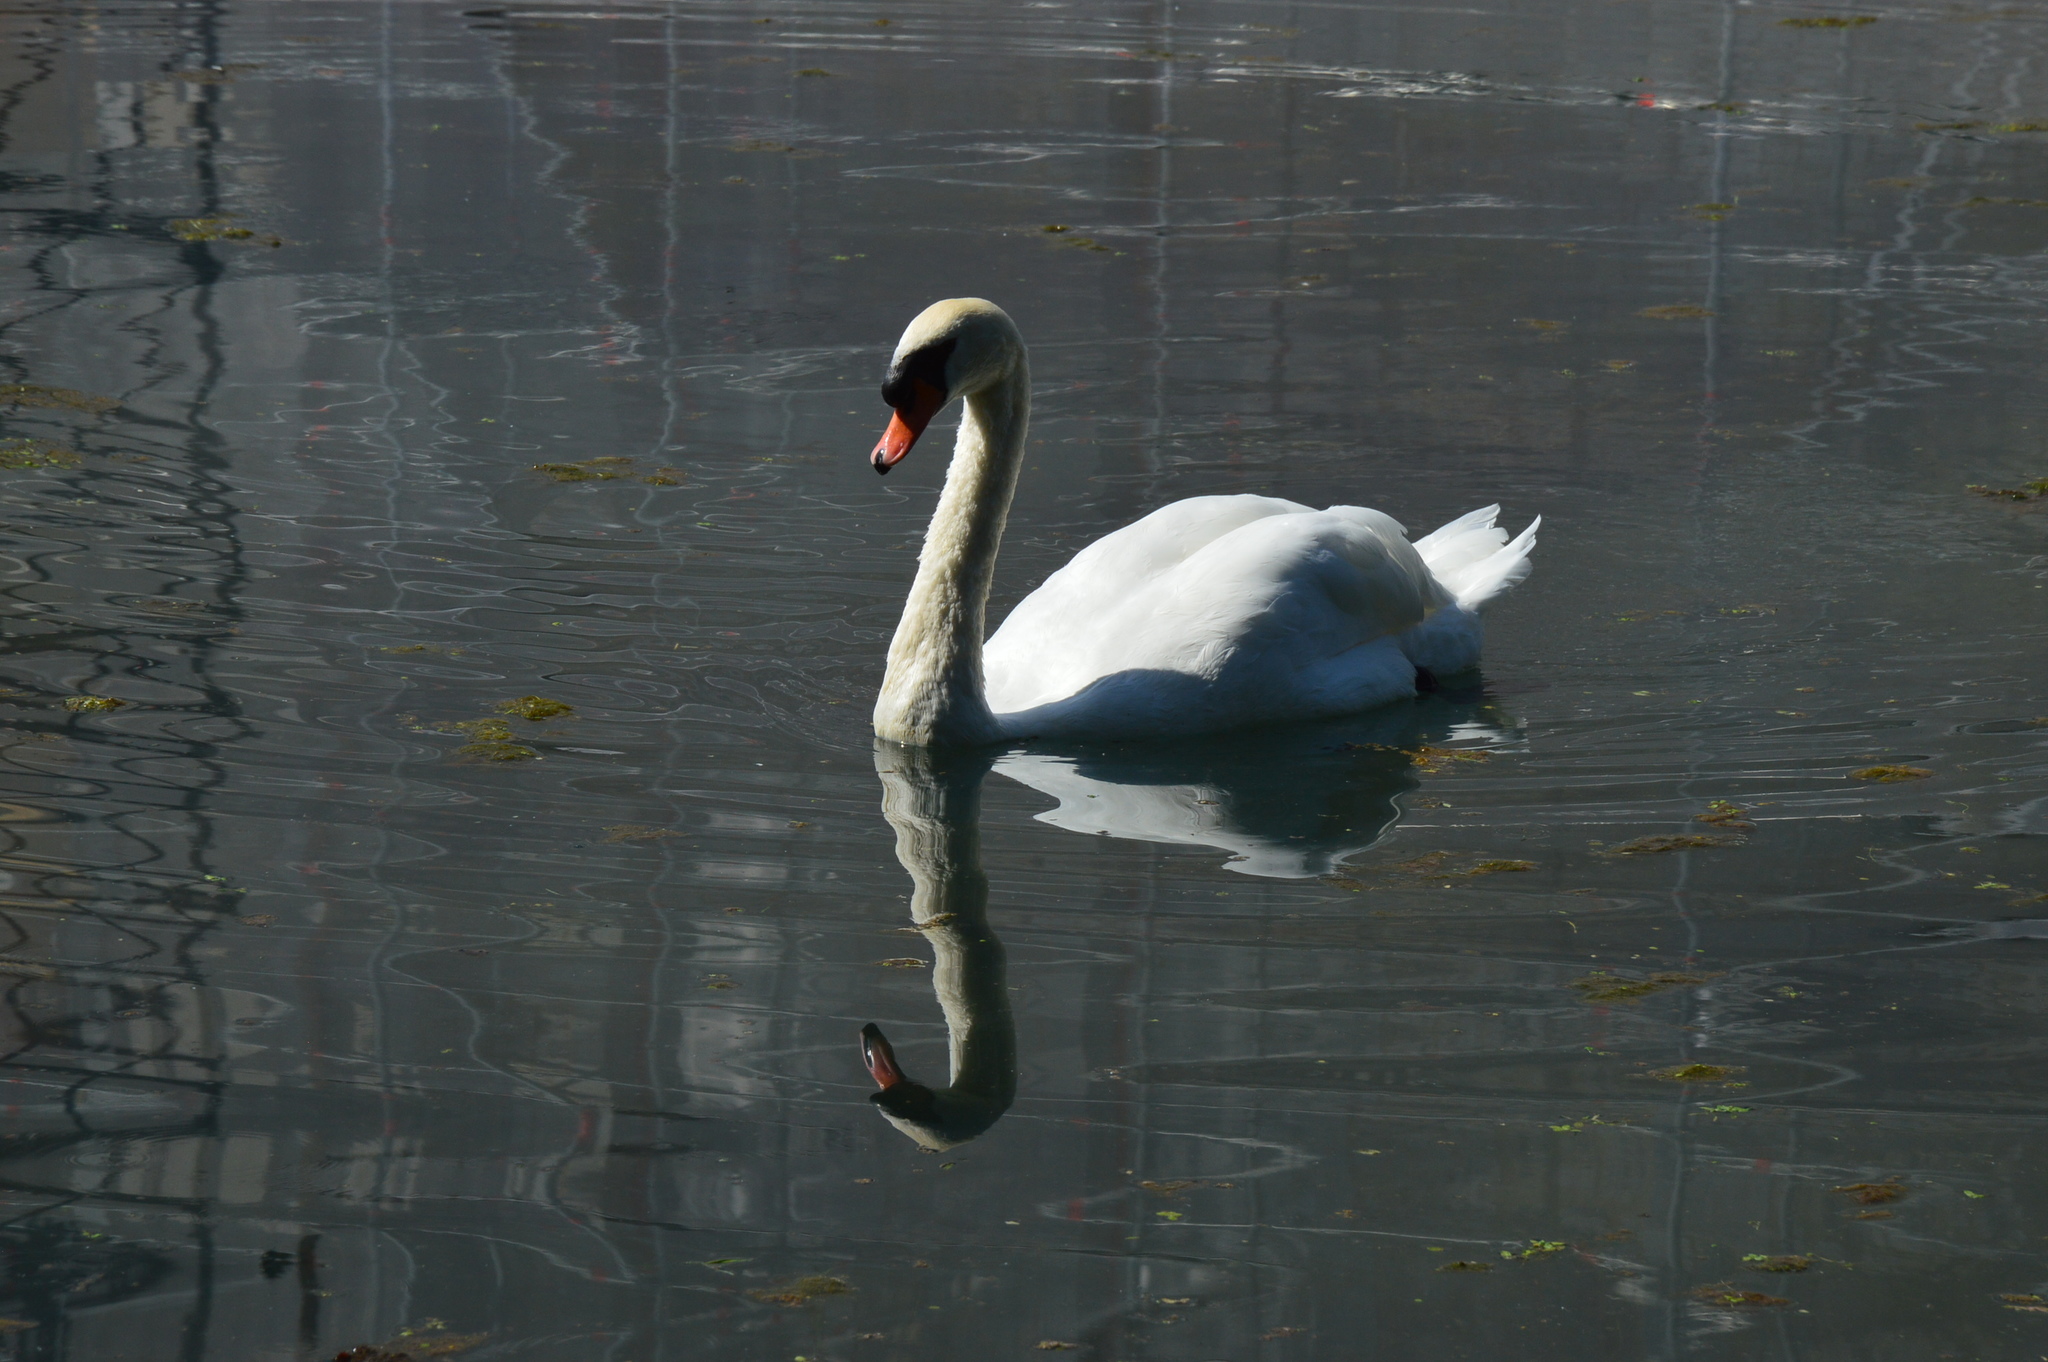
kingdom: Animalia
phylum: Chordata
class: Aves
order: Anseriformes
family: Anatidae
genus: Cygnus
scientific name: Cygnus olor
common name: Mute swan
